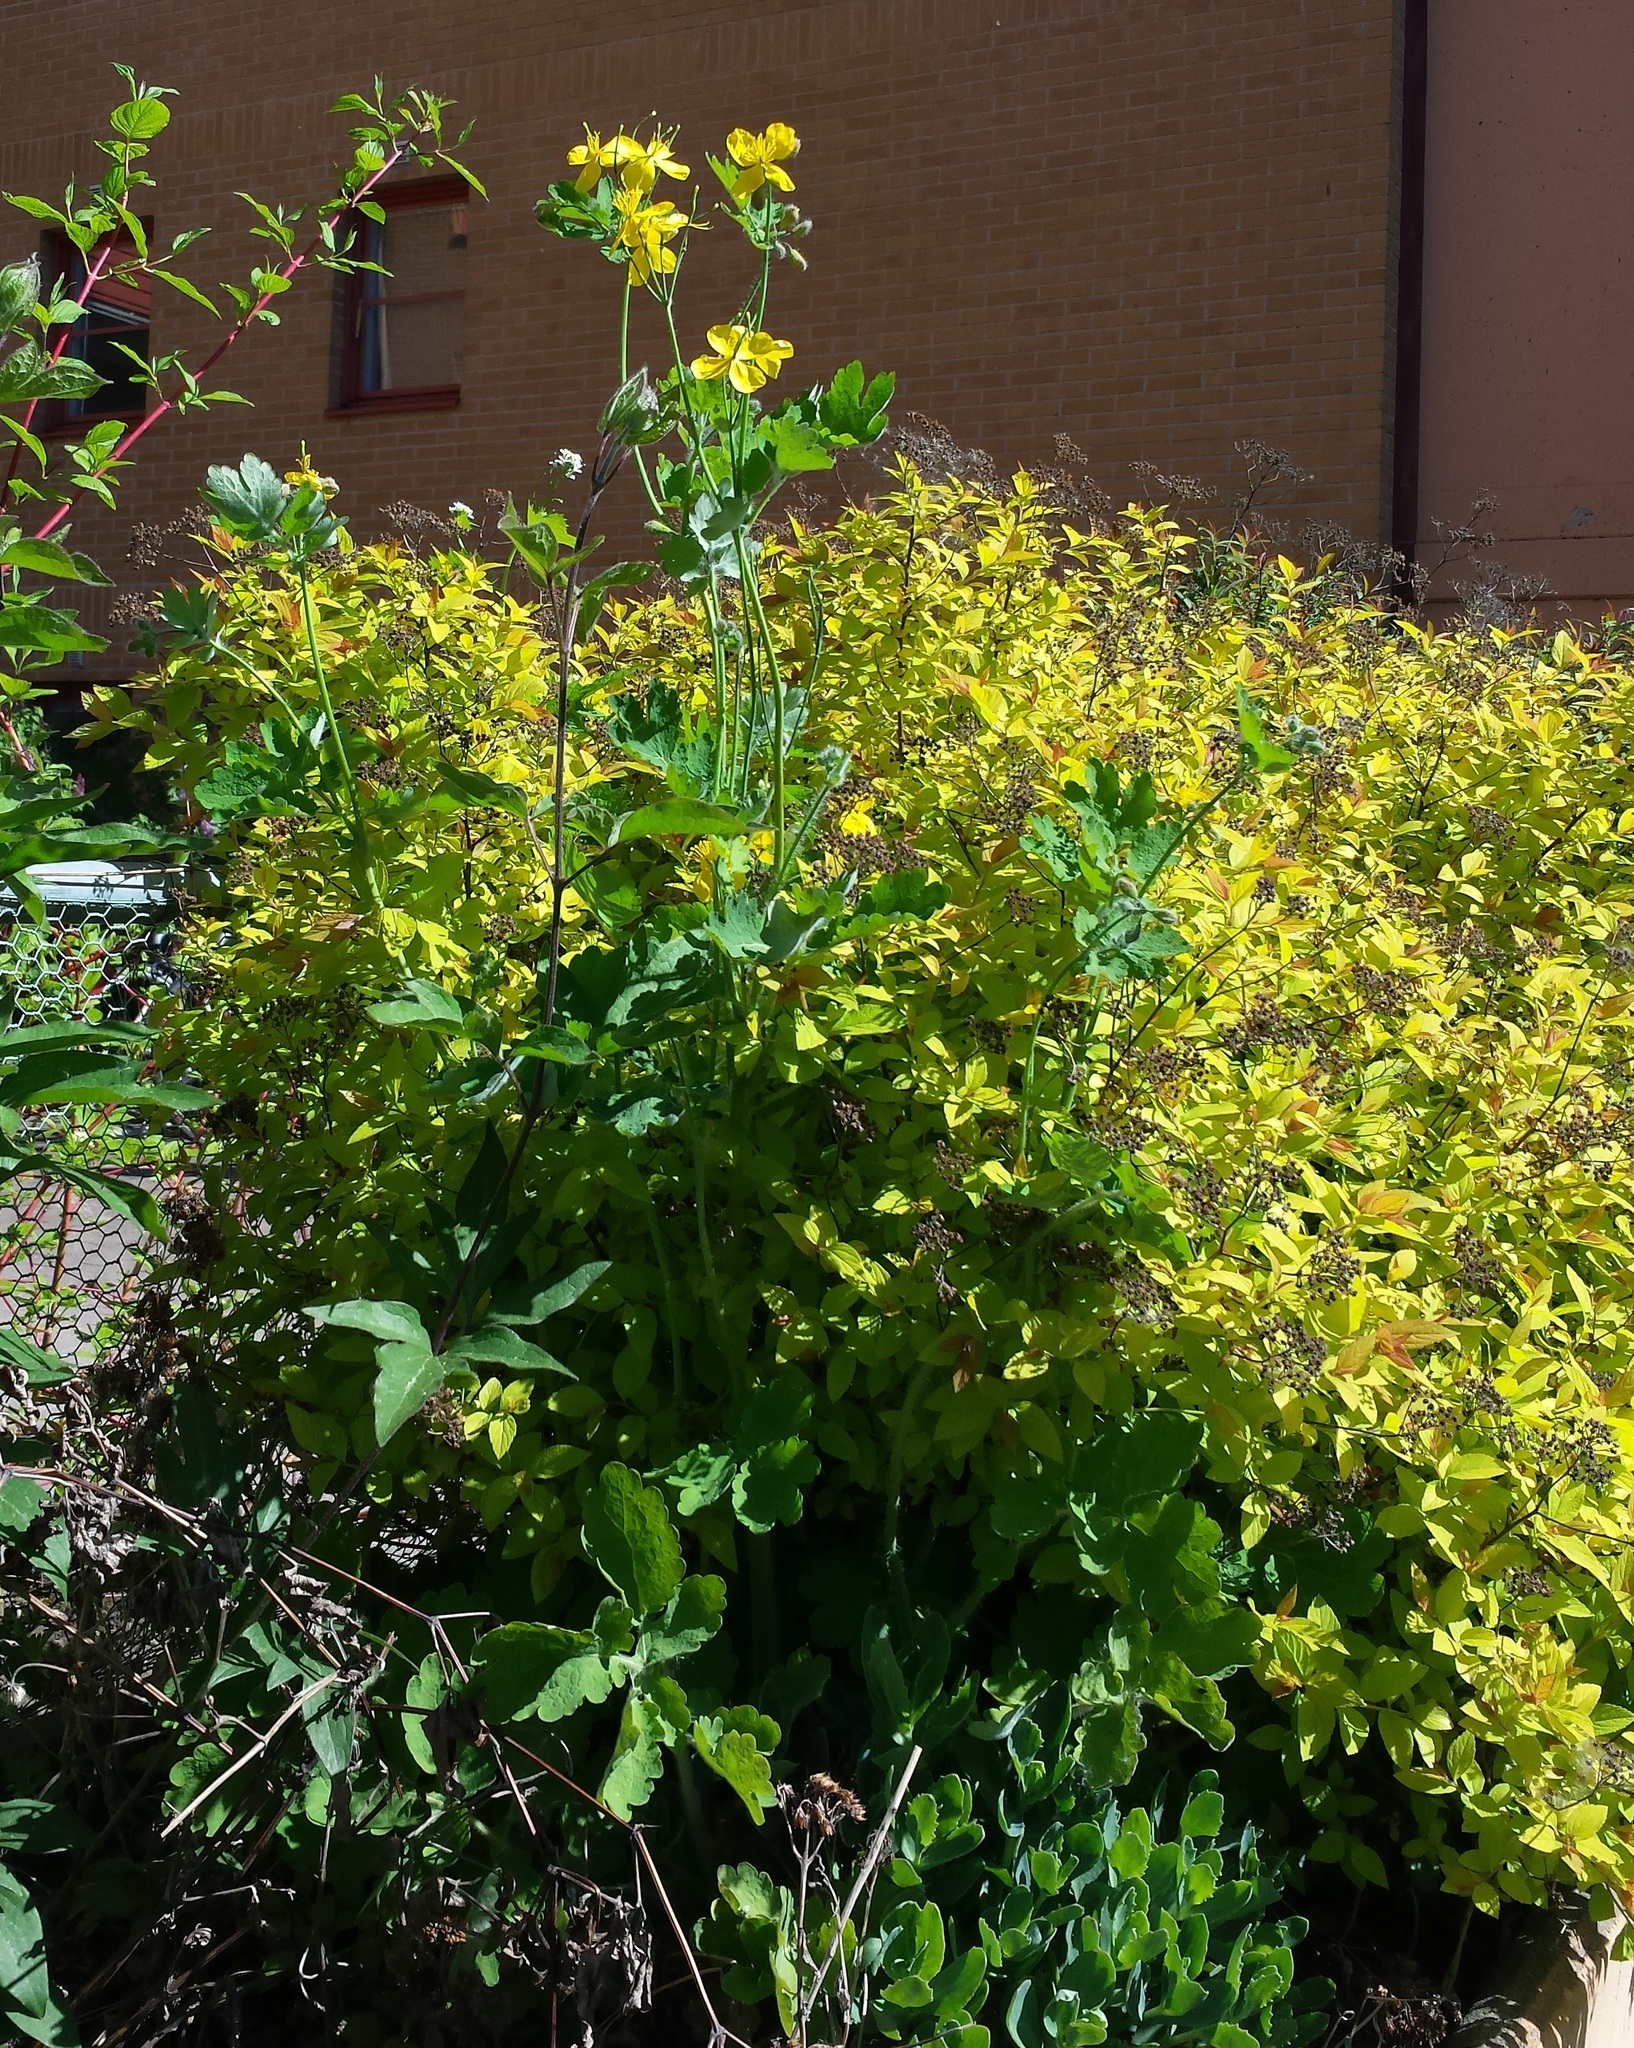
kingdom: Plantae
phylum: Tracheophyta
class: Magnoliopsida
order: Ranunculales
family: Papaveraceae
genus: Chelidonium
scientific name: Chelidonium majus
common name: Greater celandine
